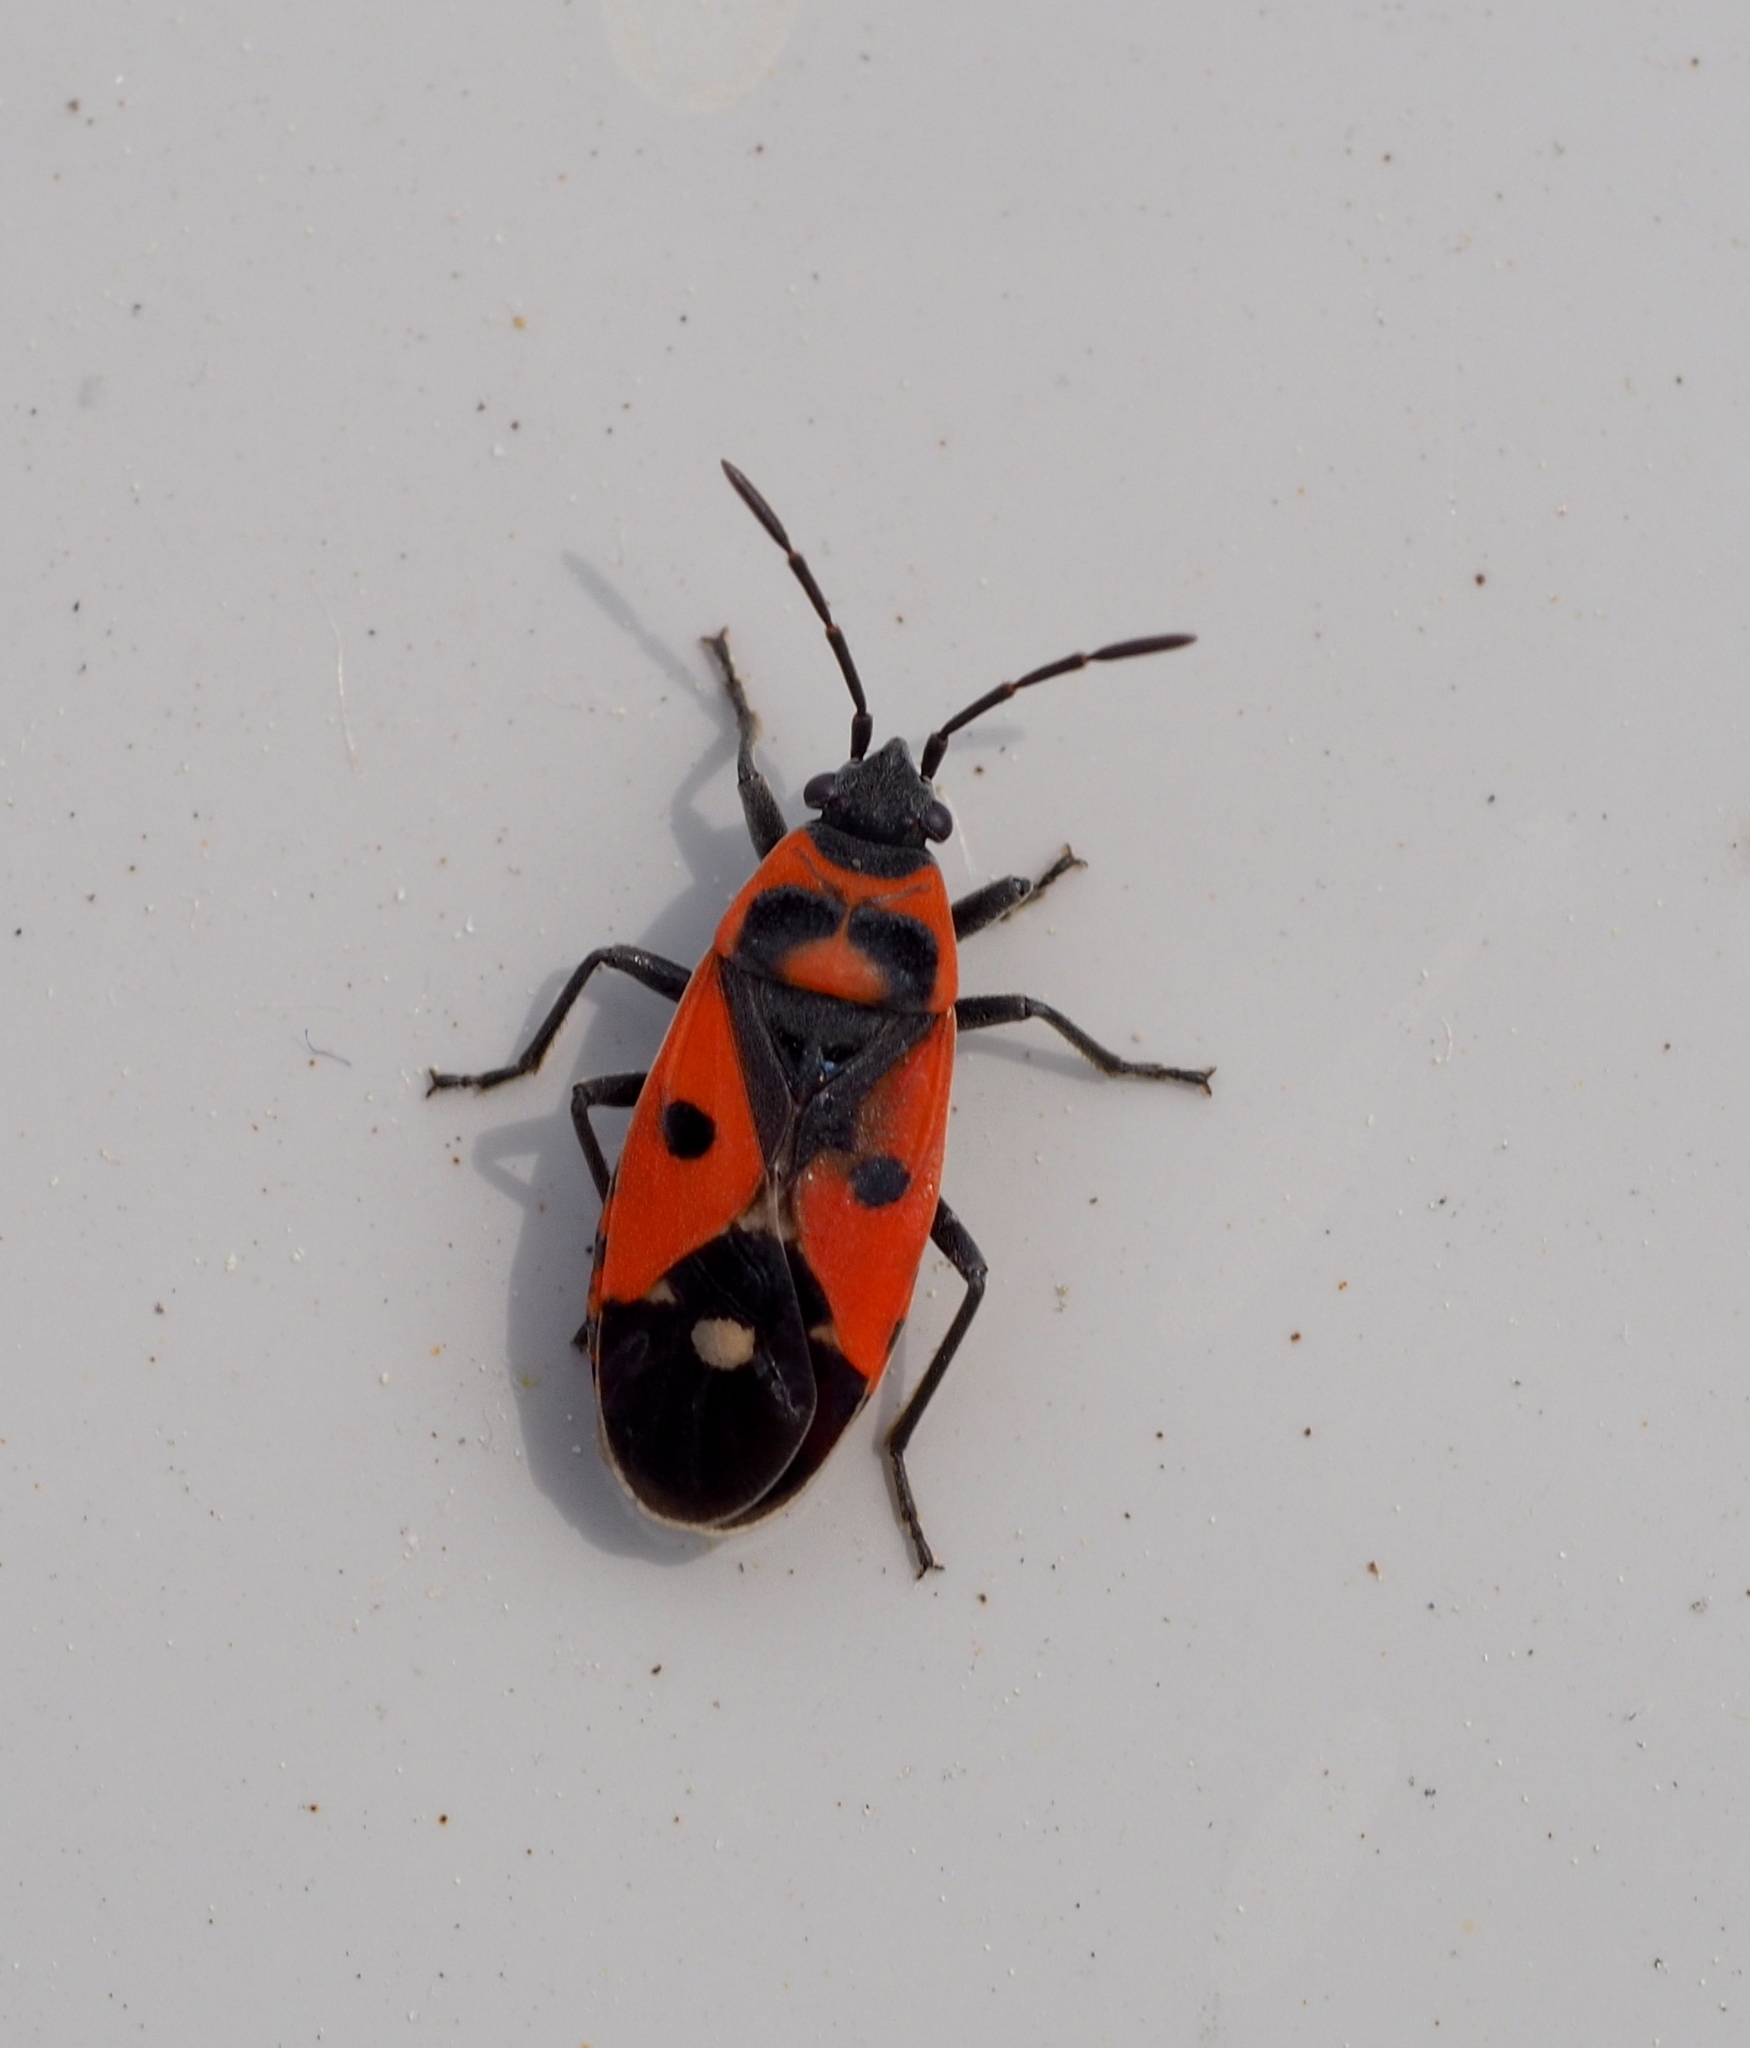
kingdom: Animalia
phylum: Arthropoda
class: Insecta
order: Hemiptera
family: Lygaeidae
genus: Melanocoryphus
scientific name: Melanocoryphus albomaculatus
